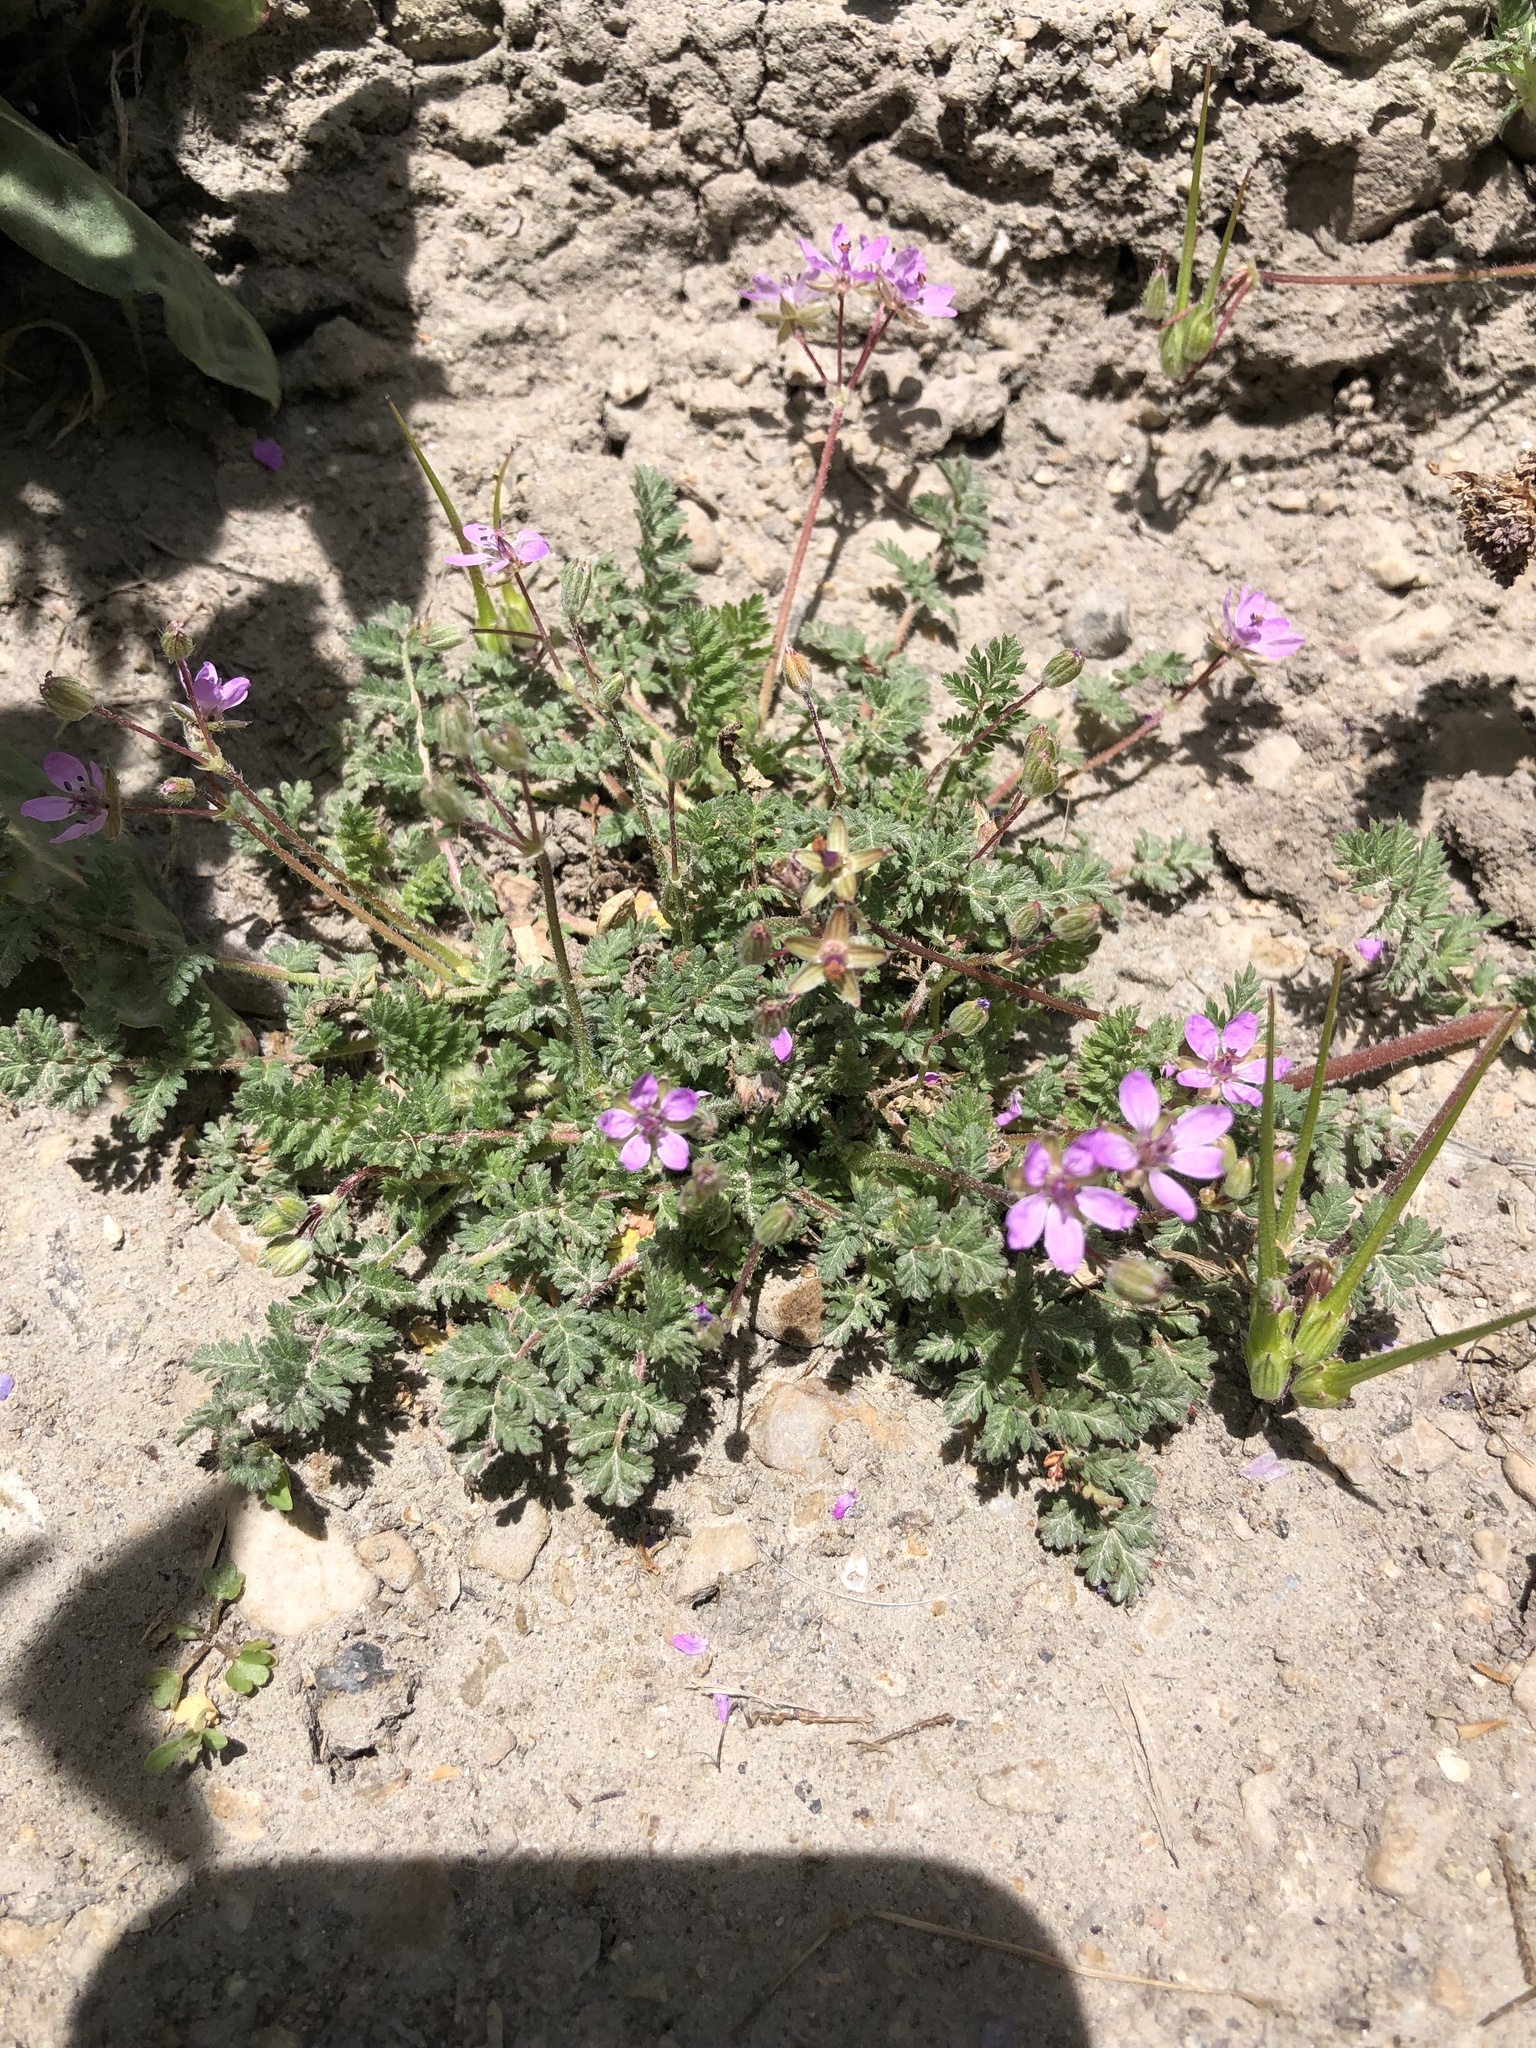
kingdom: Plantae
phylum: Tracheophyta
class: Magnoliopsida
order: Geraniales
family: Geraniaceae
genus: Erodium
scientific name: Erodium cicutarium
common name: Common stork's-bill
